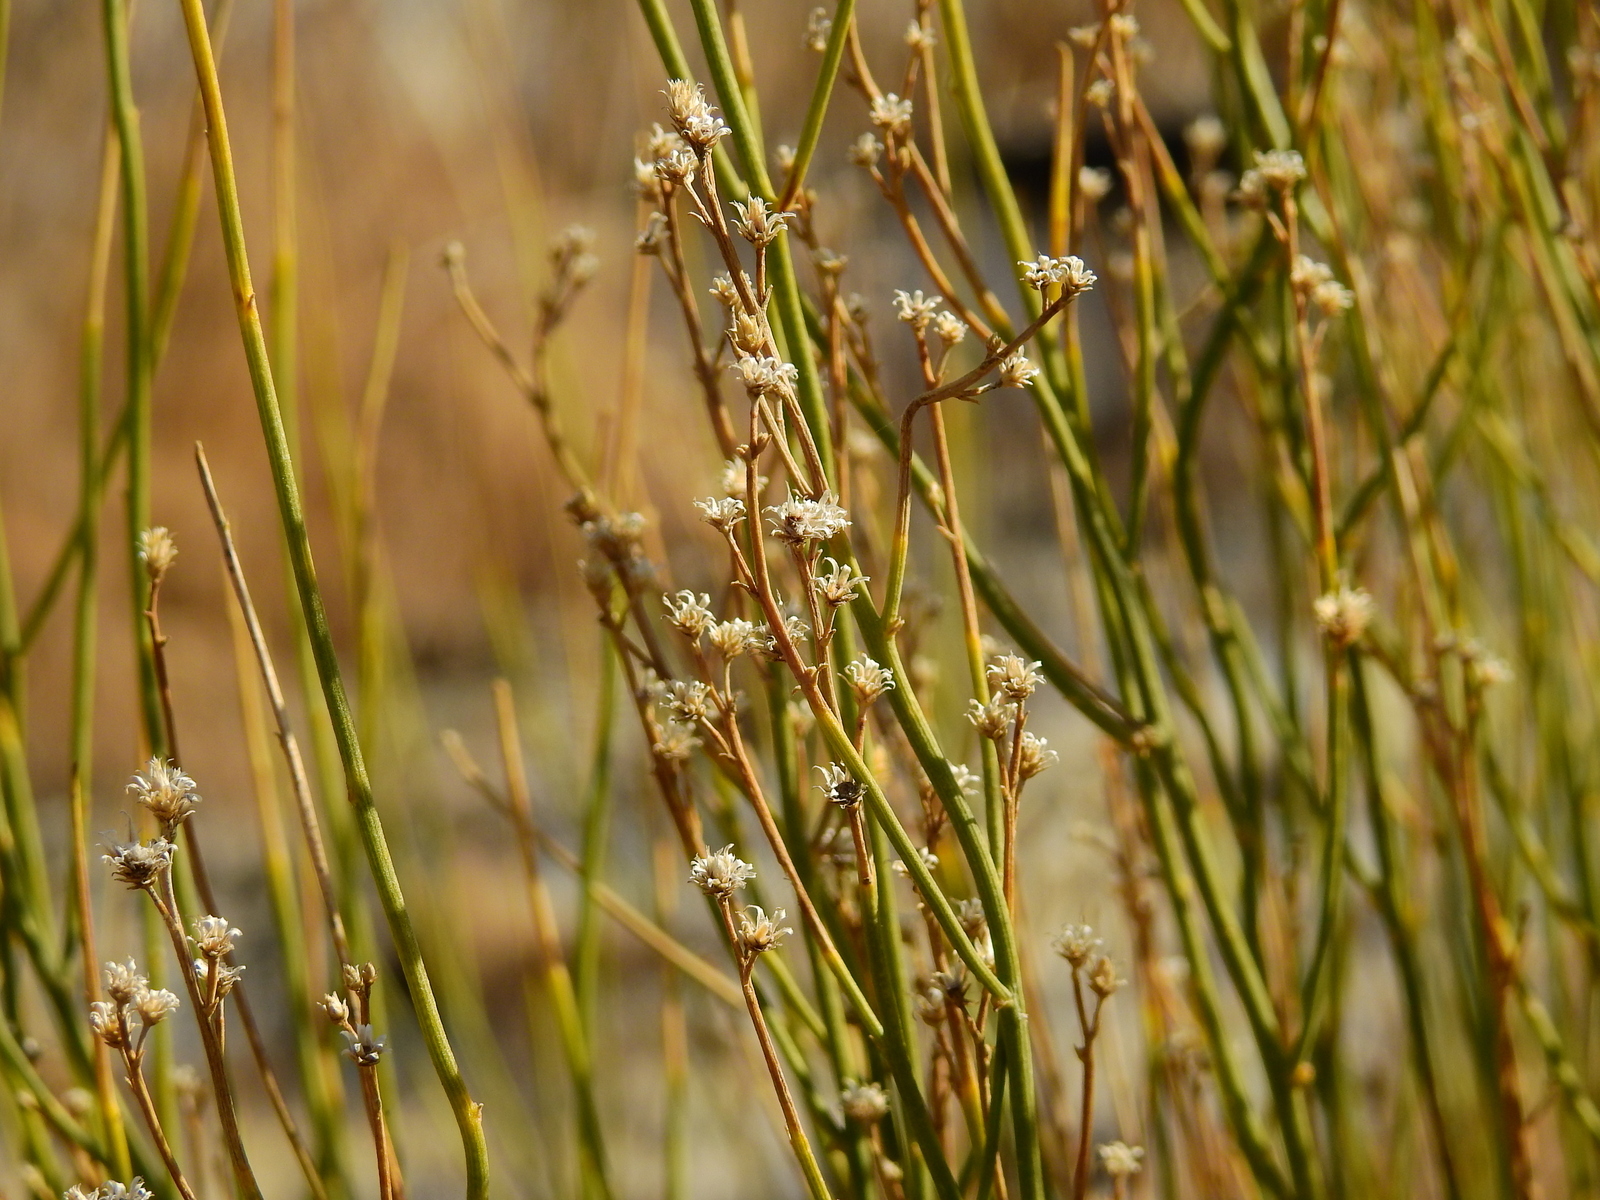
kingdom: Plantae
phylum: Tracheophyta
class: Magnoliopsida
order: Asterales
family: Asteraceae
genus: Pseudobaccharis
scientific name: Pseudobaccharis spartioides
